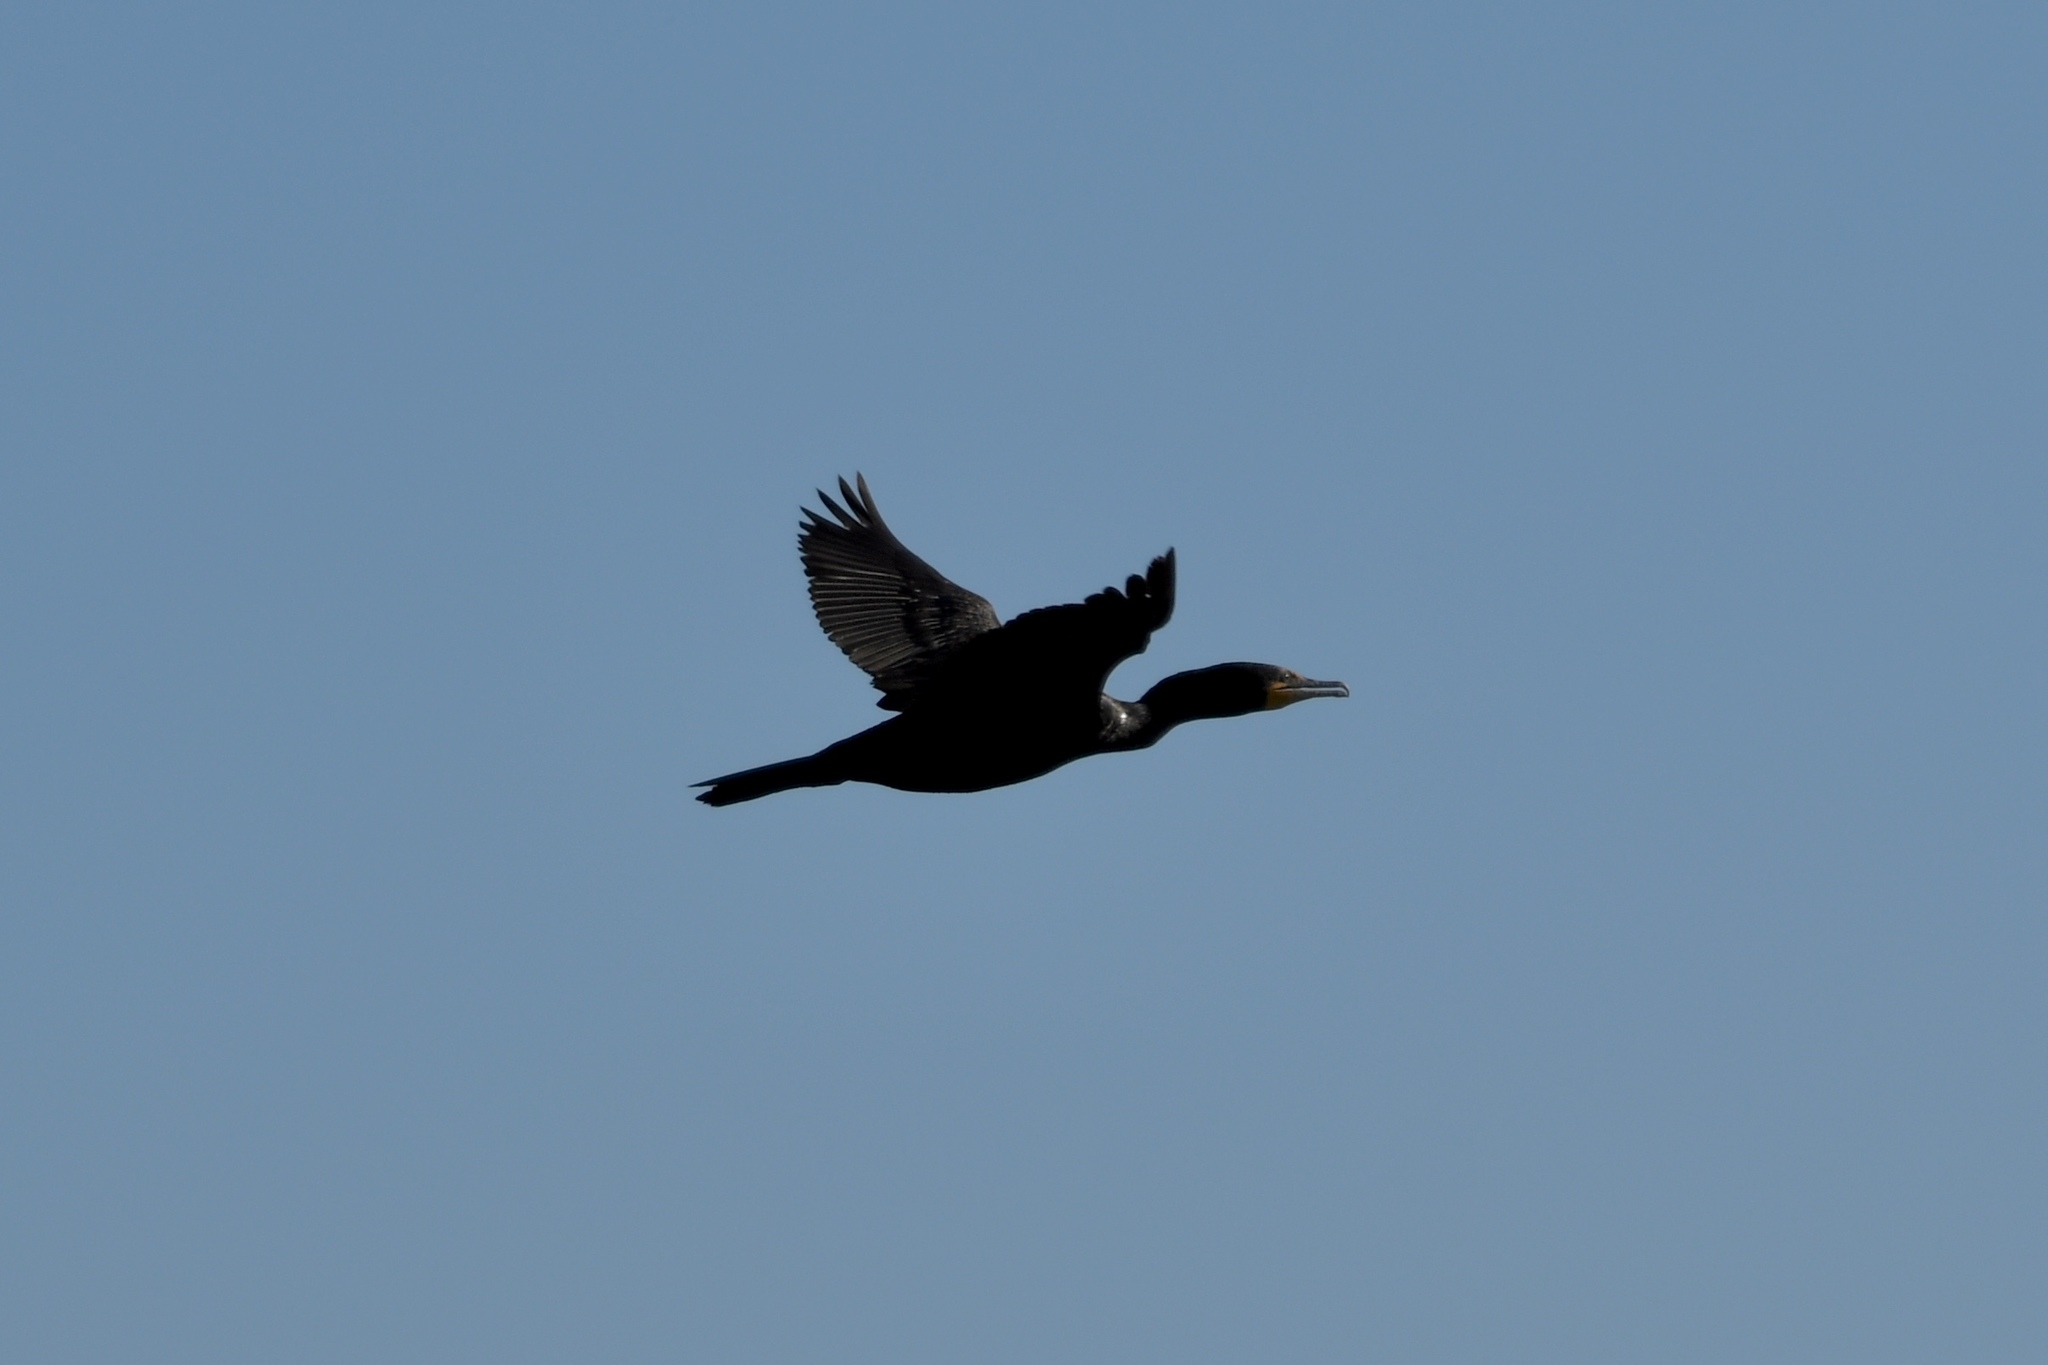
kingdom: Animalia
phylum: Chordata
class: Aves
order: Suliformes
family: Phalacrocoracidae
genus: Phalacrocorax
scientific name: Phalacrocorax auritus
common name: Double-crested cormorant
